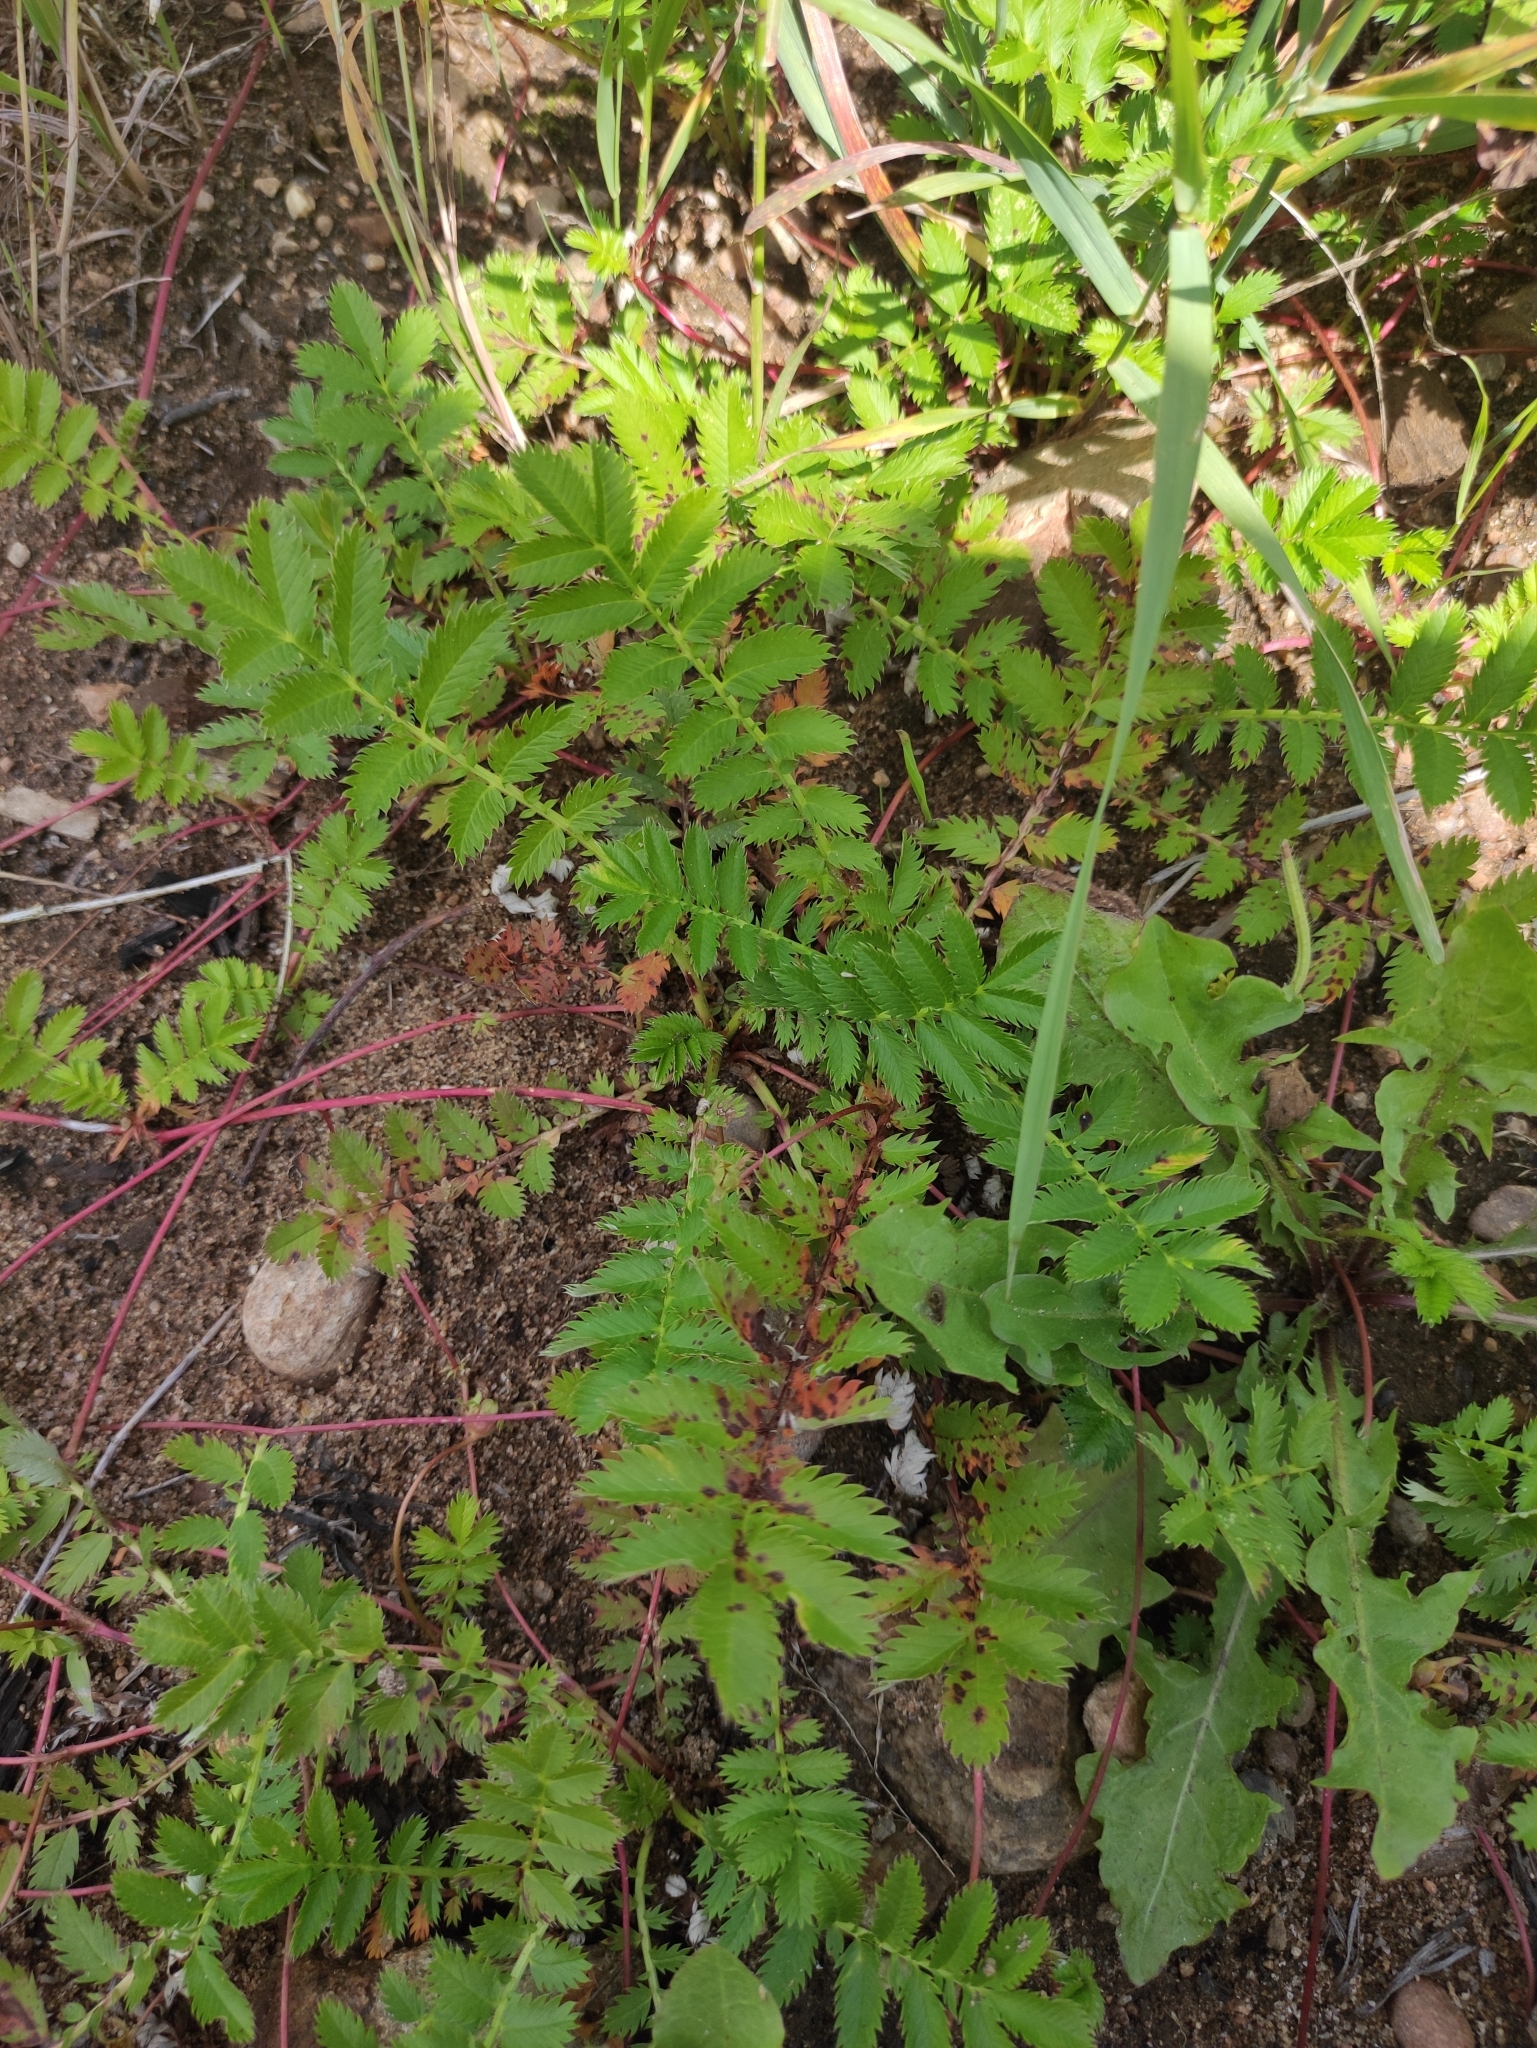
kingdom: Plantae
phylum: Tracheophyta
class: Magnoliopsida
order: Rosales
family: Rosaceae
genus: Argentina
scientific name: Argentina anserina
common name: Common silverweed
